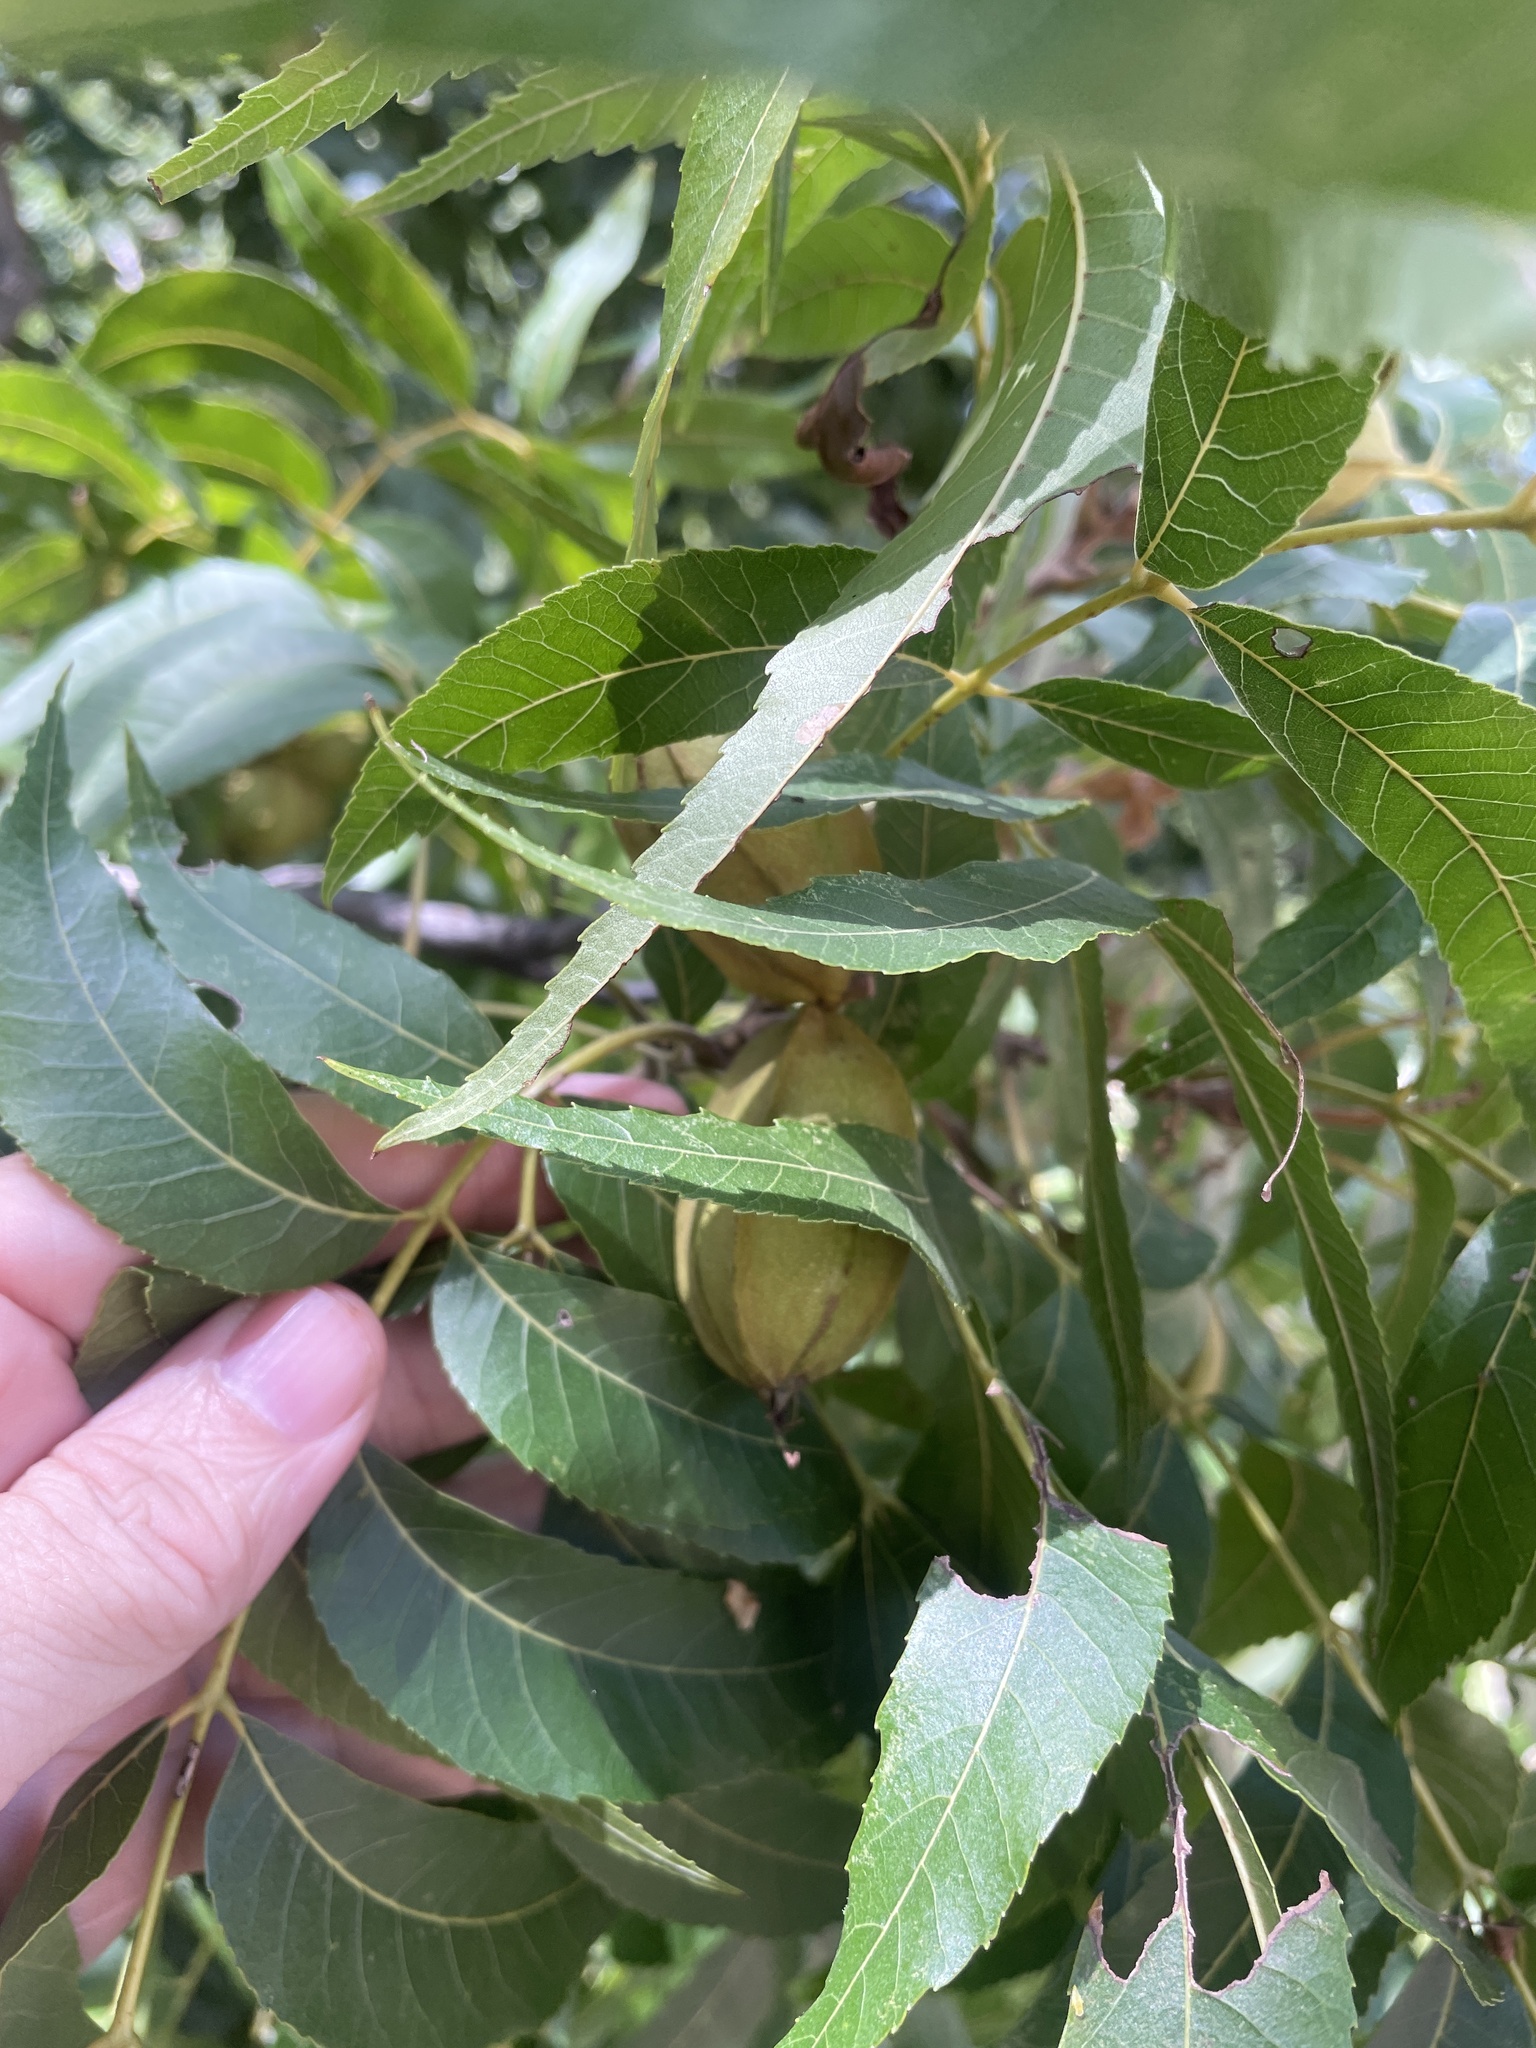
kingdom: Plantae
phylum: Tracheophyta
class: Magnoliopsida
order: Fagales
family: Juglandaceae
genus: Carya
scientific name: Carya illinoinensis
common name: Pecan
